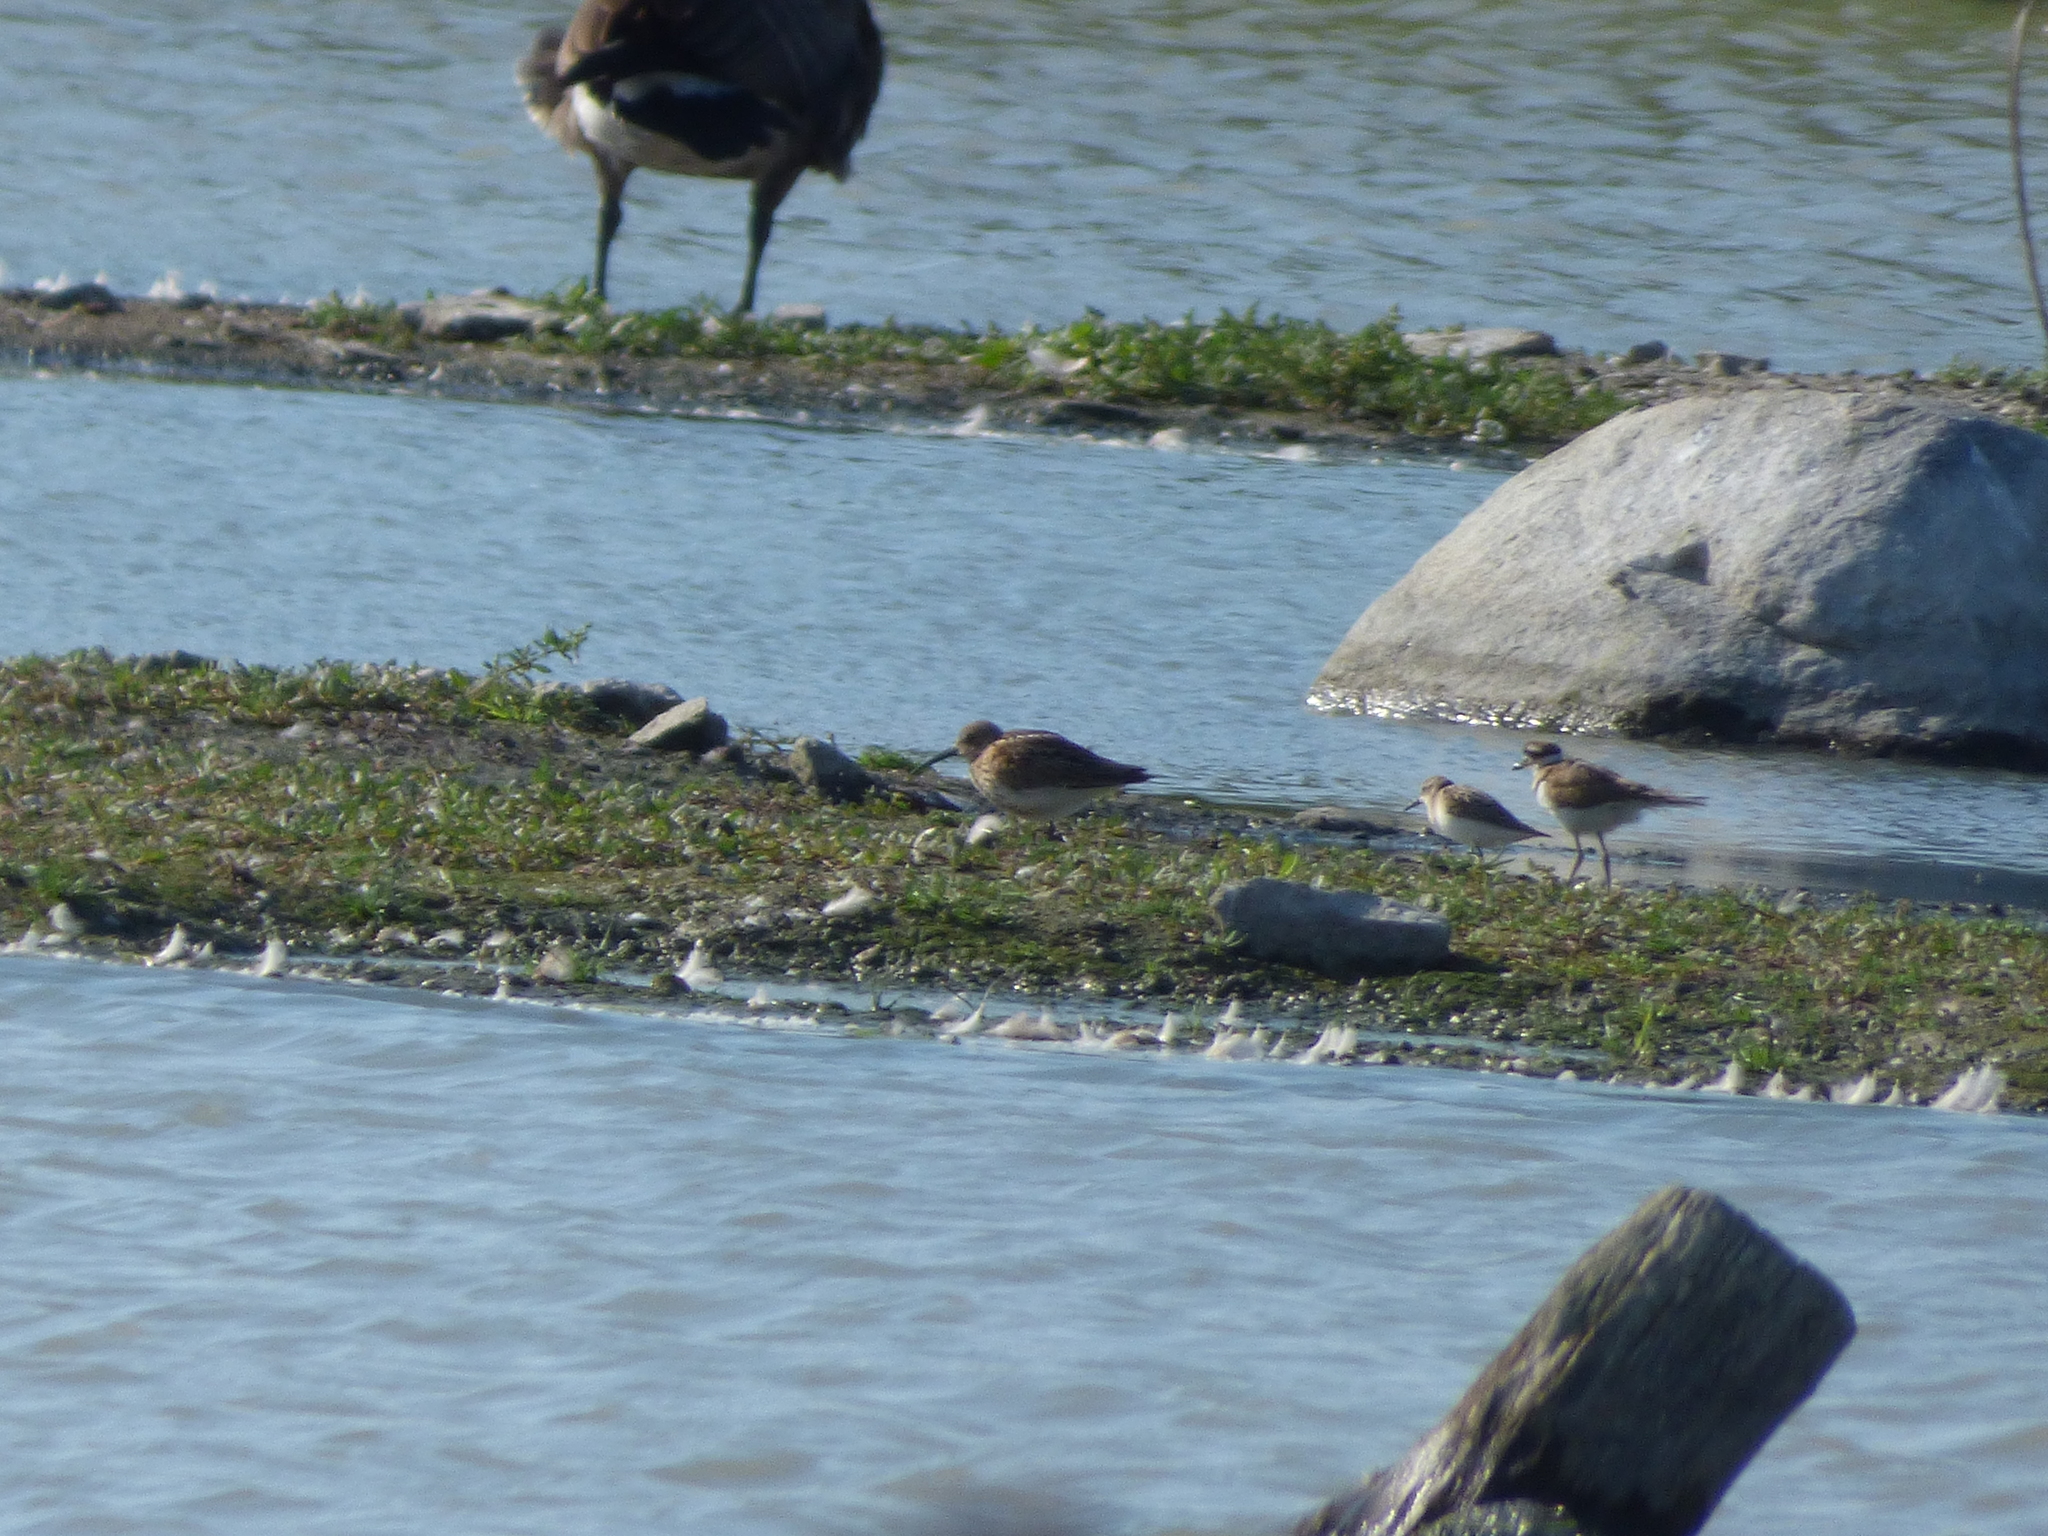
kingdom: Animalia
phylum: Chordata
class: Aves
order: Charadriiformes
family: Scolopacidae
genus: Calidris
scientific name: Calidris alpina
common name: Dunlin
